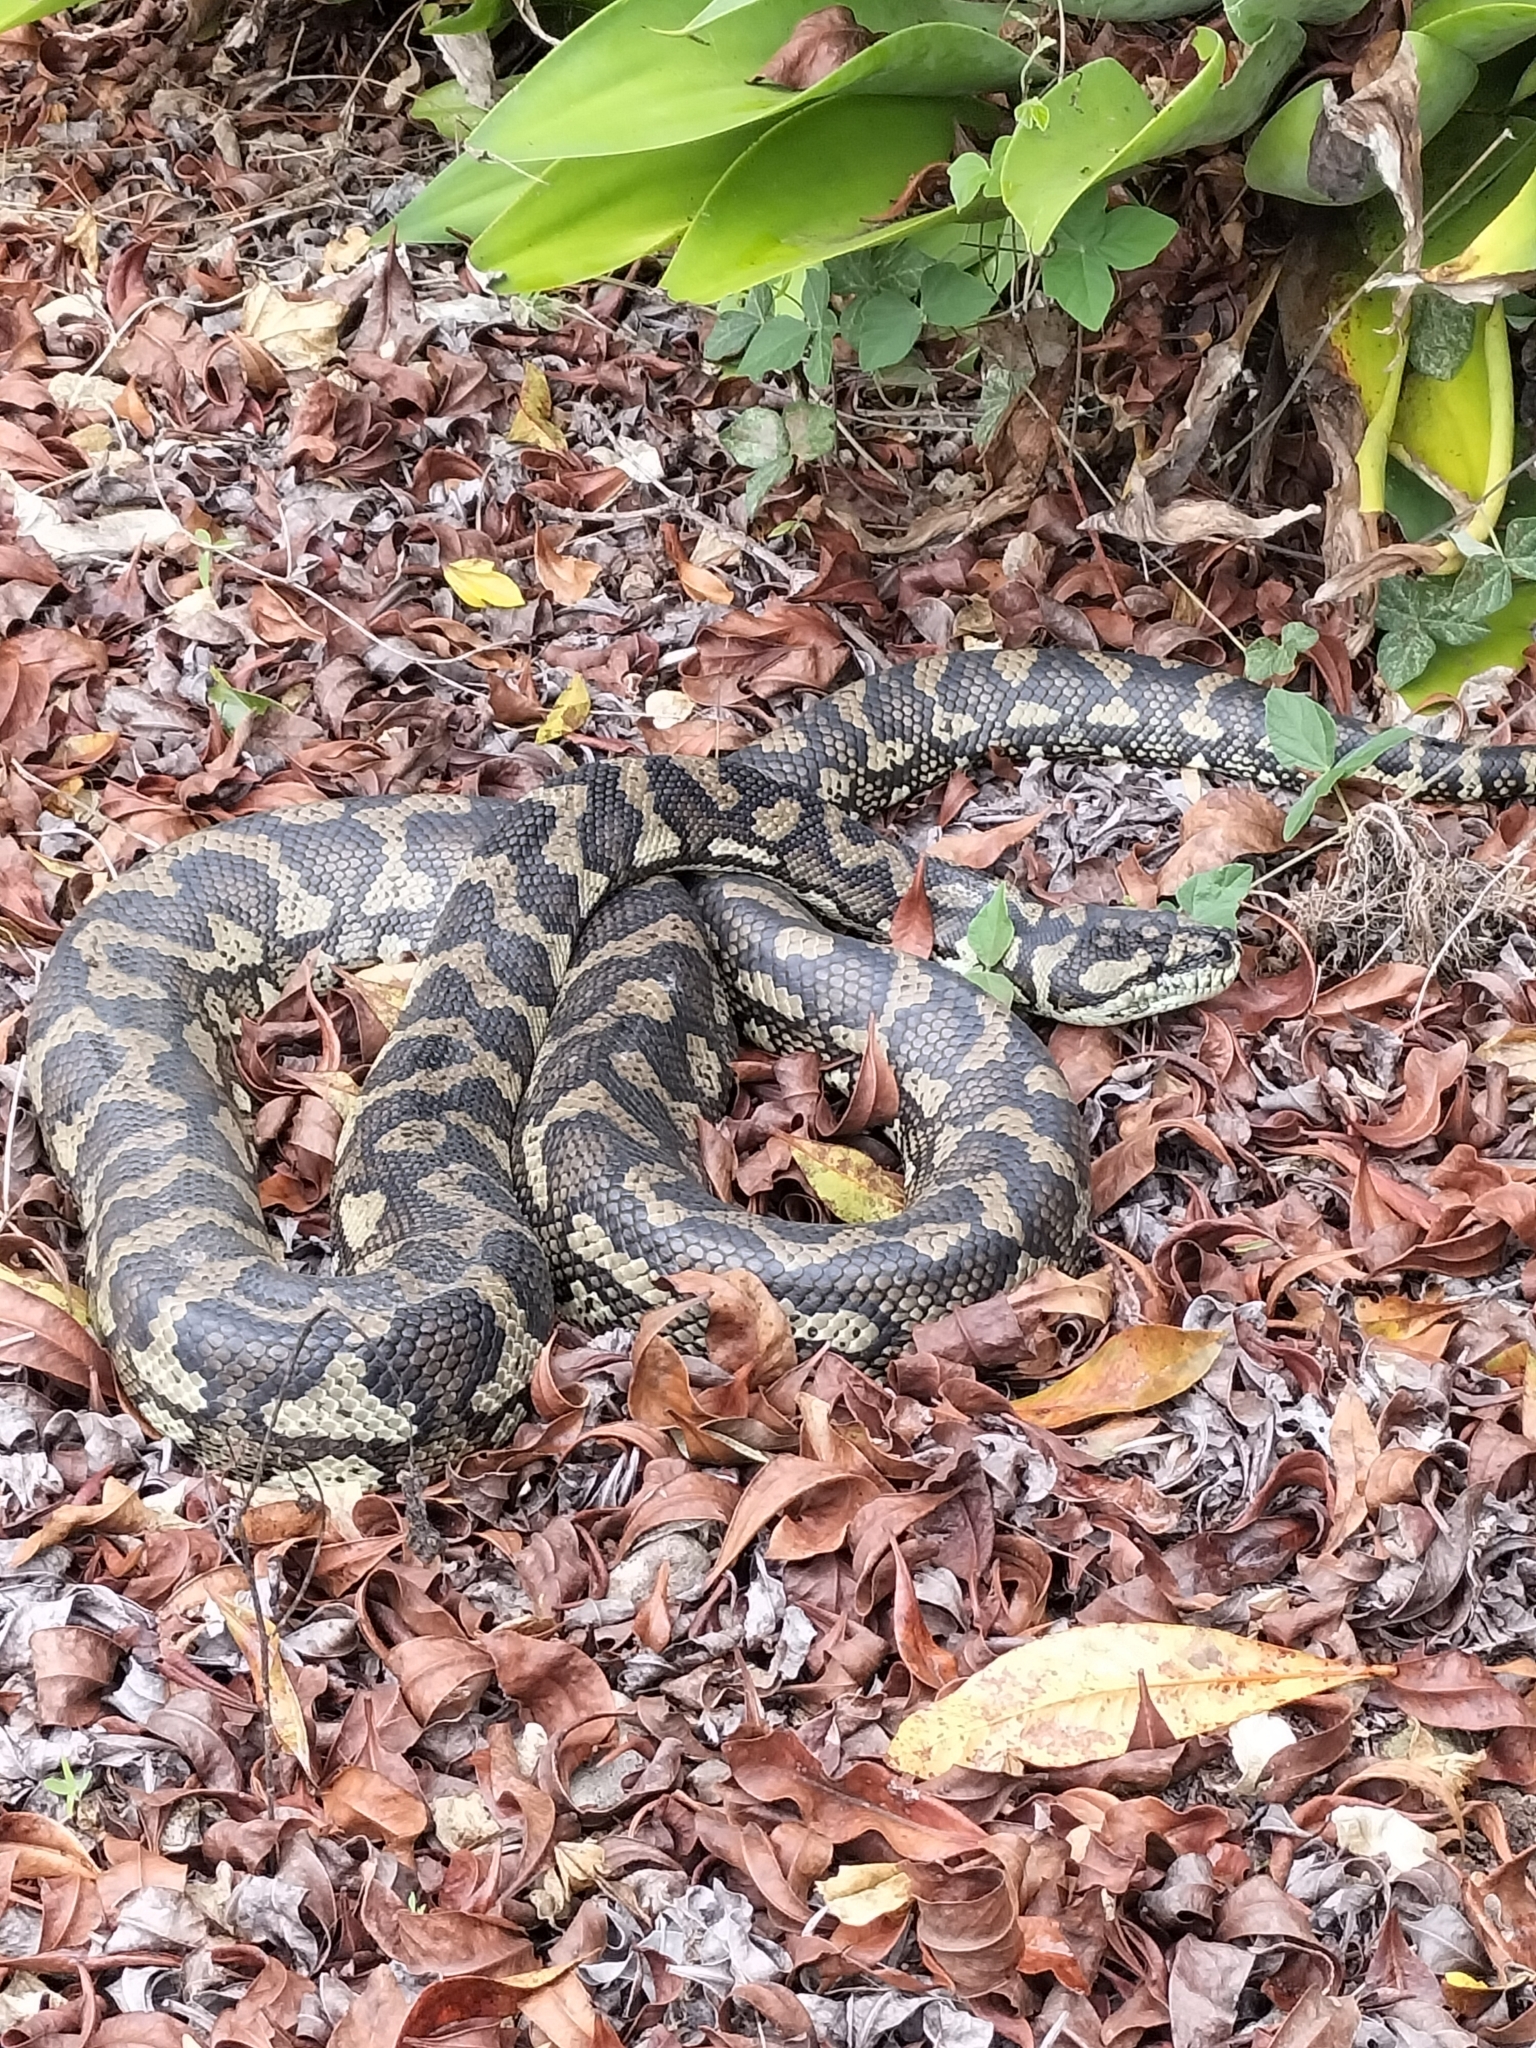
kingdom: Animalia
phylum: Chordata
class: Squamata
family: Pythonidae
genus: Morelia
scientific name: Morelia spilota
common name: Carpet python
